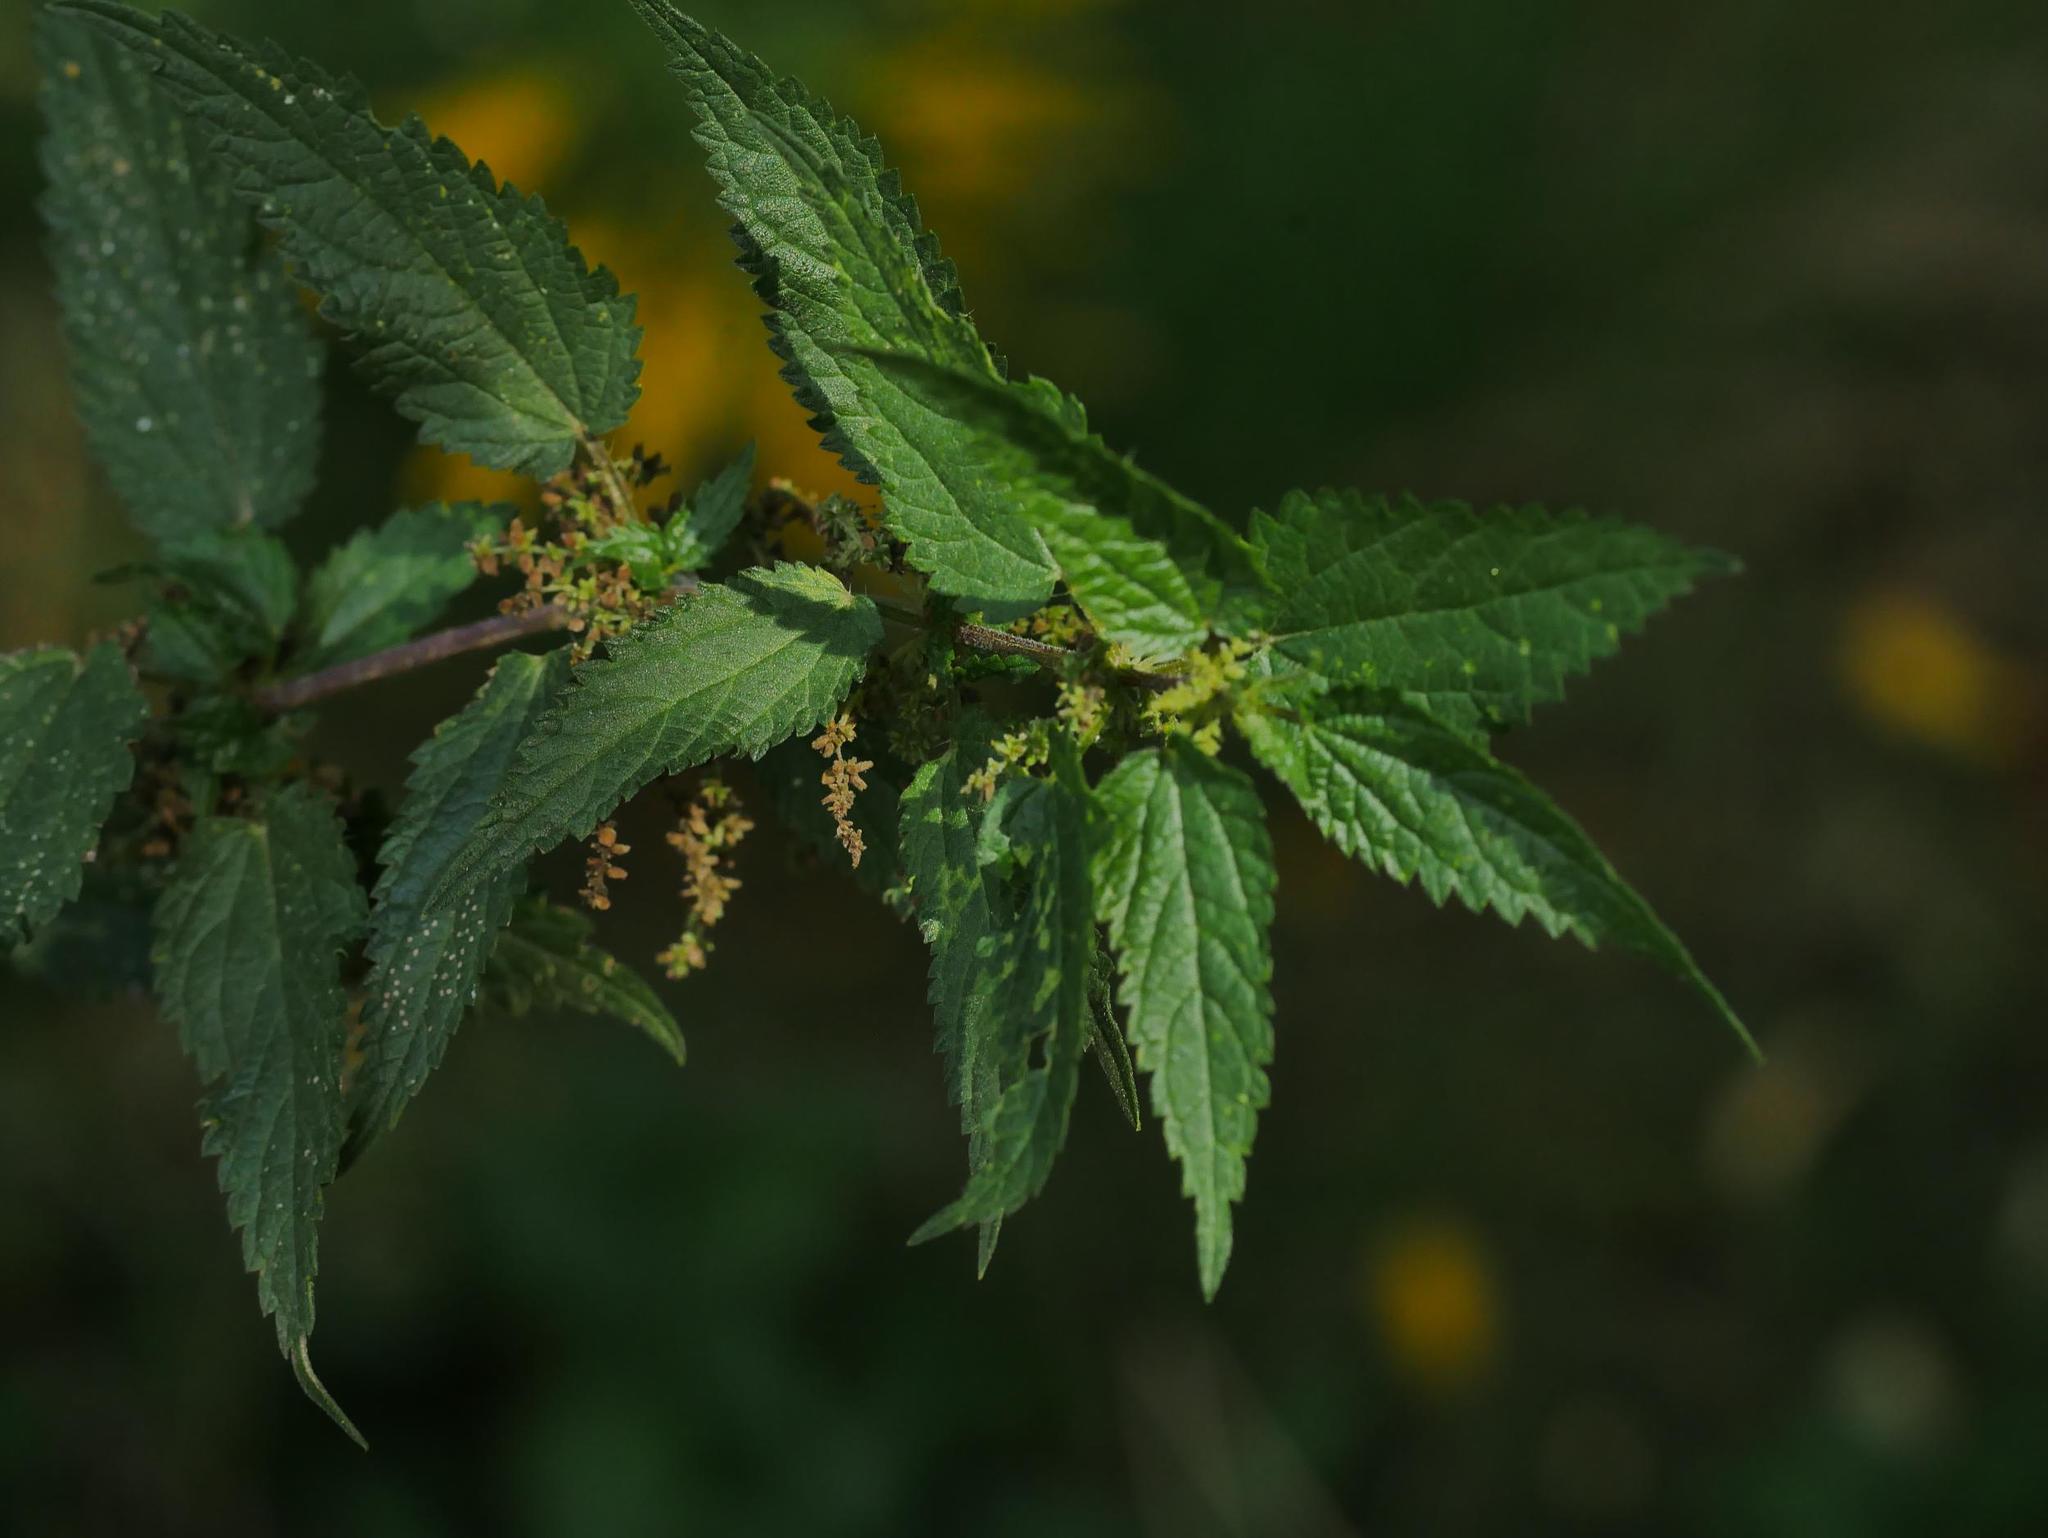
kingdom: Plantae
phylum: Tracheophyta
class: Magnoliopsida
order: Rosales
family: Urticaceae
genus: Urtica
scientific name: Urtica dioica
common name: Common nettle
